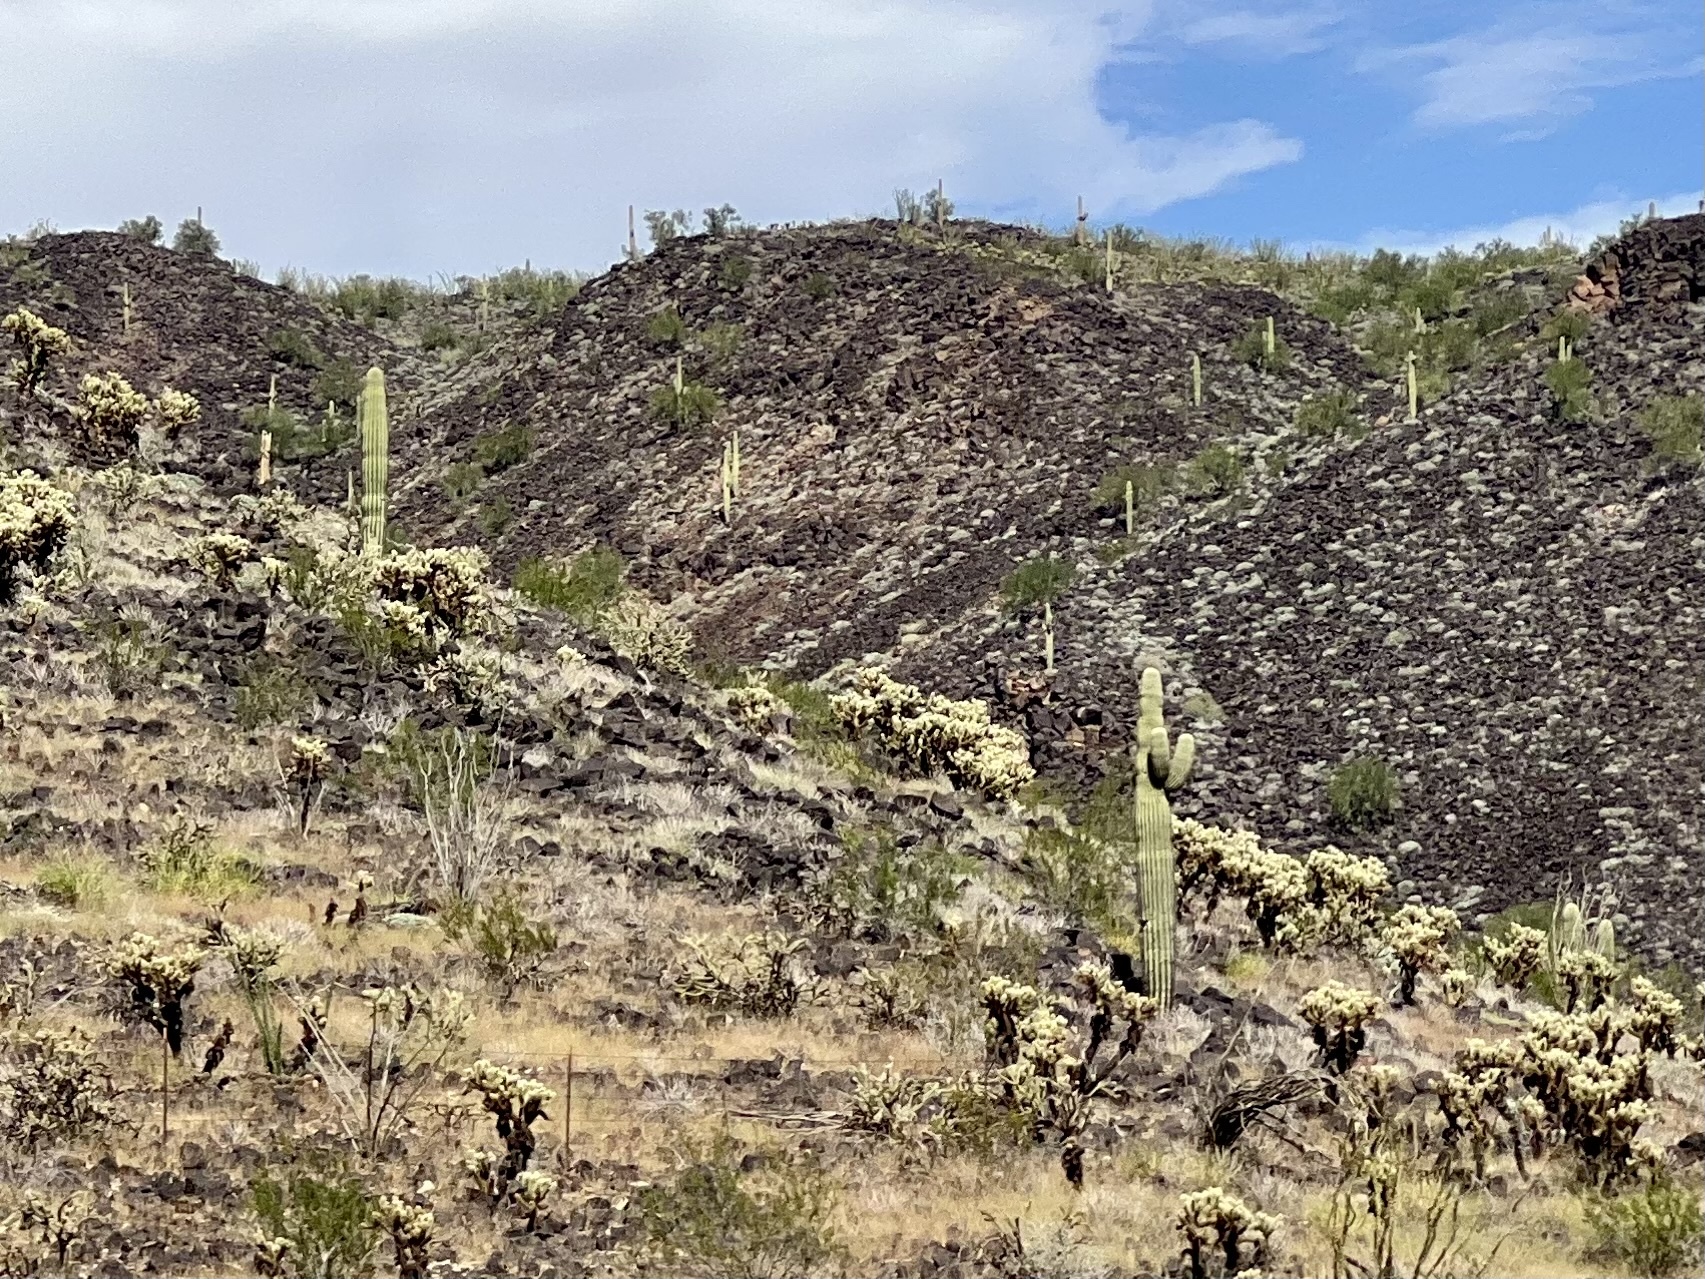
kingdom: Plantae
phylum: Tracheophyta
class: Magnoliopsida
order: Caryophyllales
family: Cactaceae
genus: Carnegiea
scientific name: Carnegiea gigantea
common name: Saguaro
